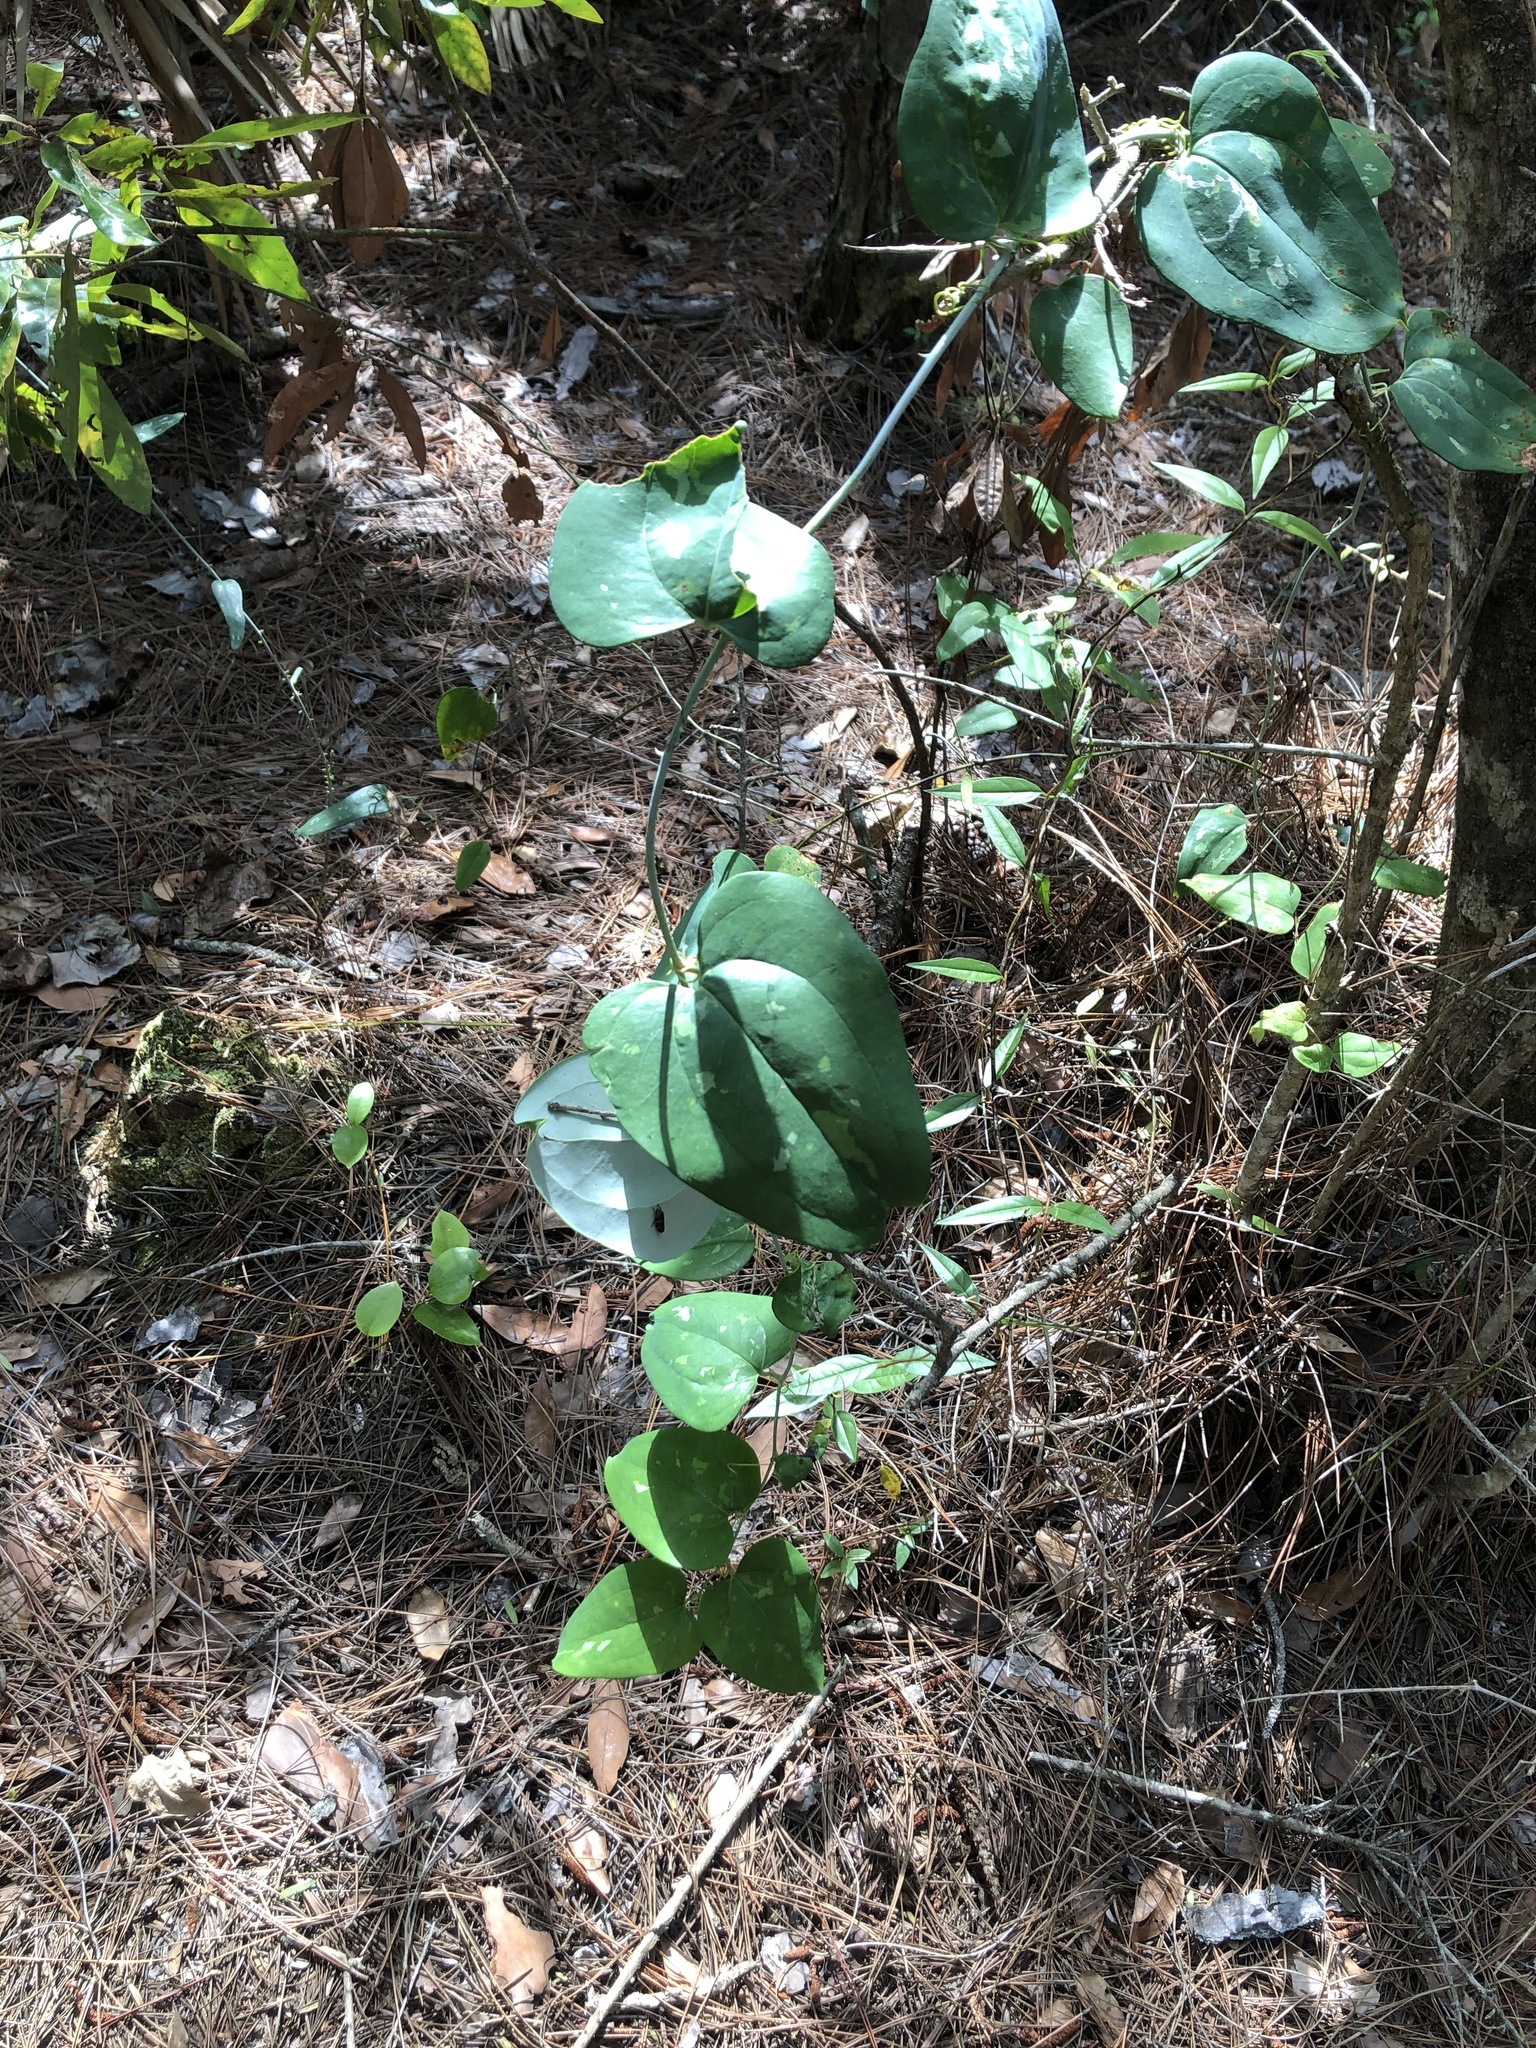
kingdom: Plantae
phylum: Tracheophyta
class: Liliopsida
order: Liliales
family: Smilacaceae
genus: Smilax
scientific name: Smilax glauca
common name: Cat greenbrier
